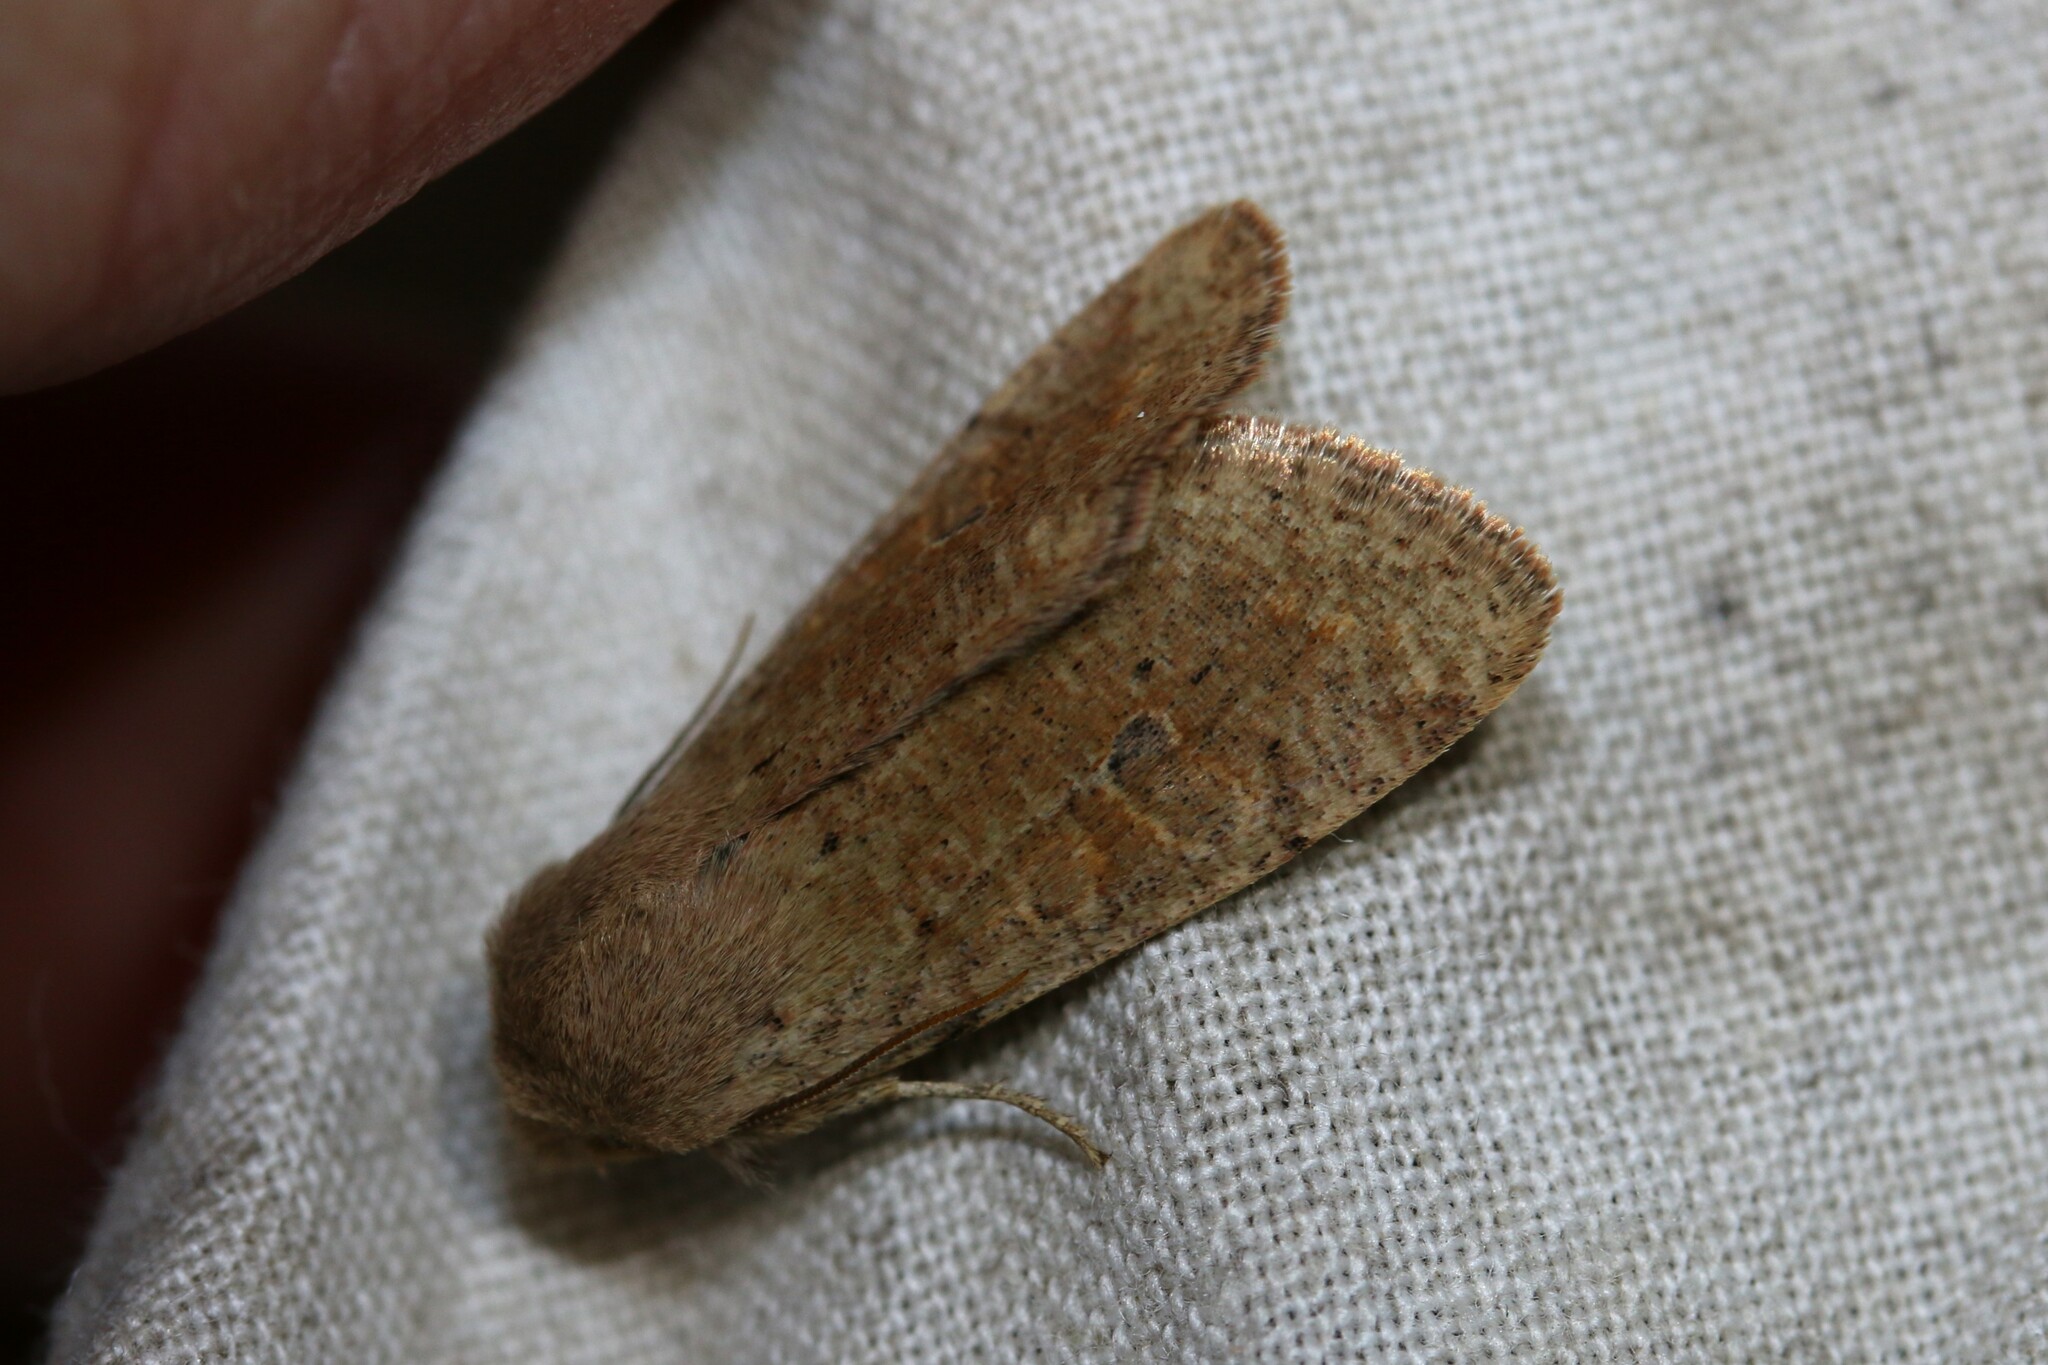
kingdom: Animalia
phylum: Arthropoda
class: Insecta
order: Lepidoptera
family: Noctuidae
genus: Orthosia
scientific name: Orthosia cruda
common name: Small quaker
